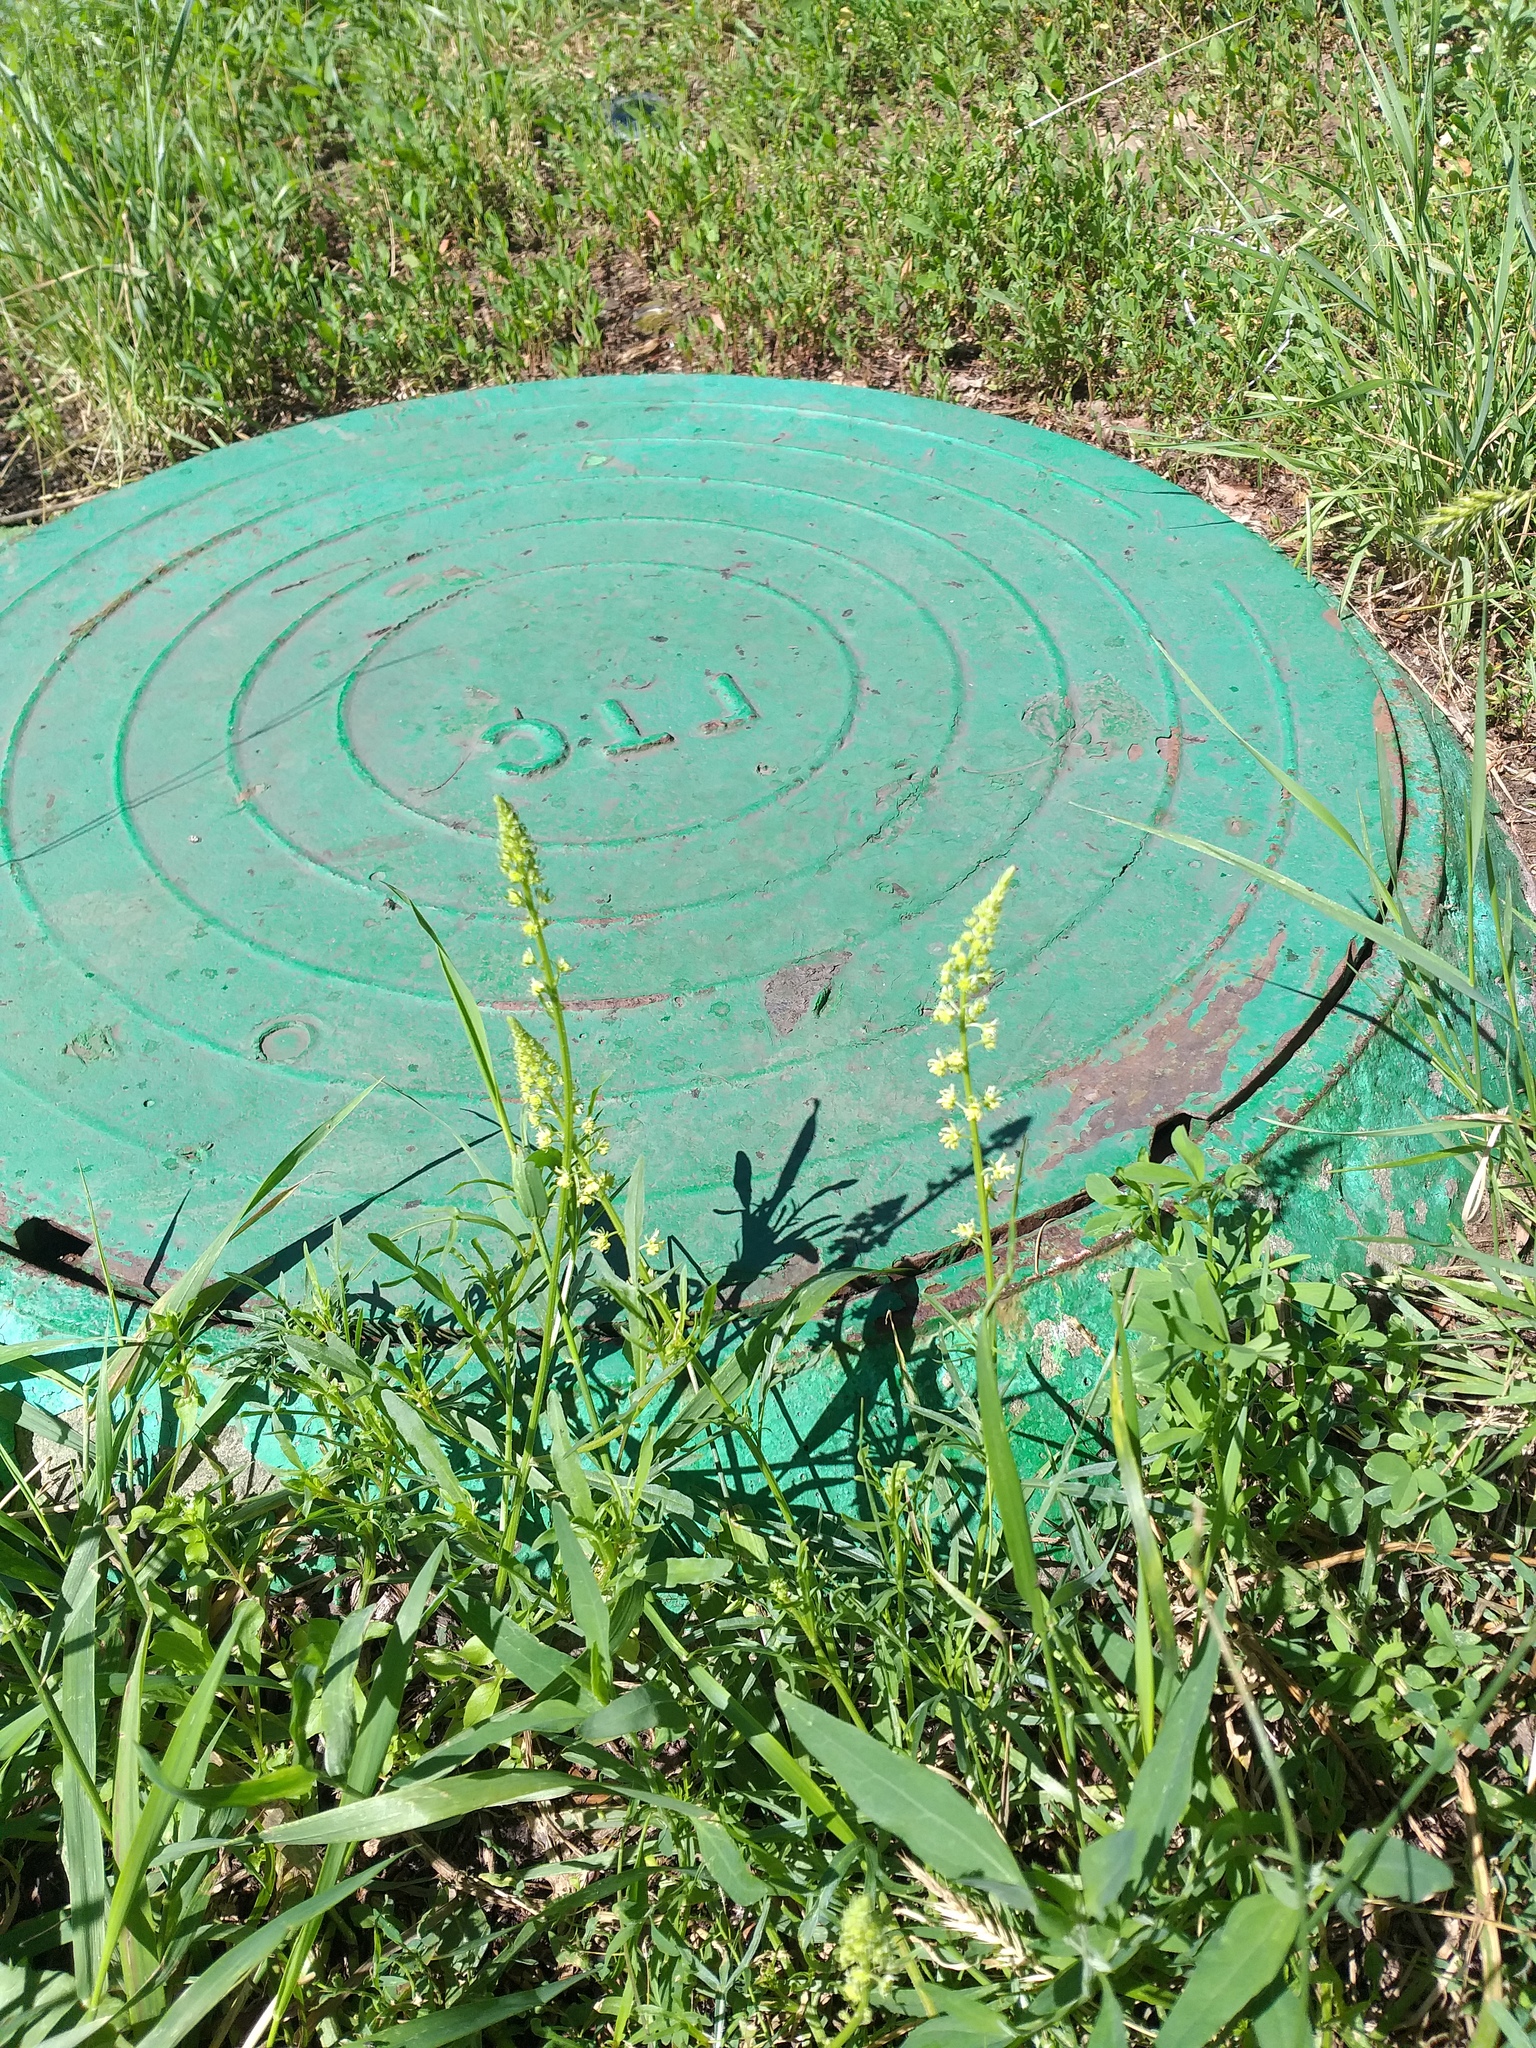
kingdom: Plantae
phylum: Tracheophyta
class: Magnoliopsida
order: Brassicales
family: Resedaceae
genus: Reseda
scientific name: Reseda lutea
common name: Wild mignonette
